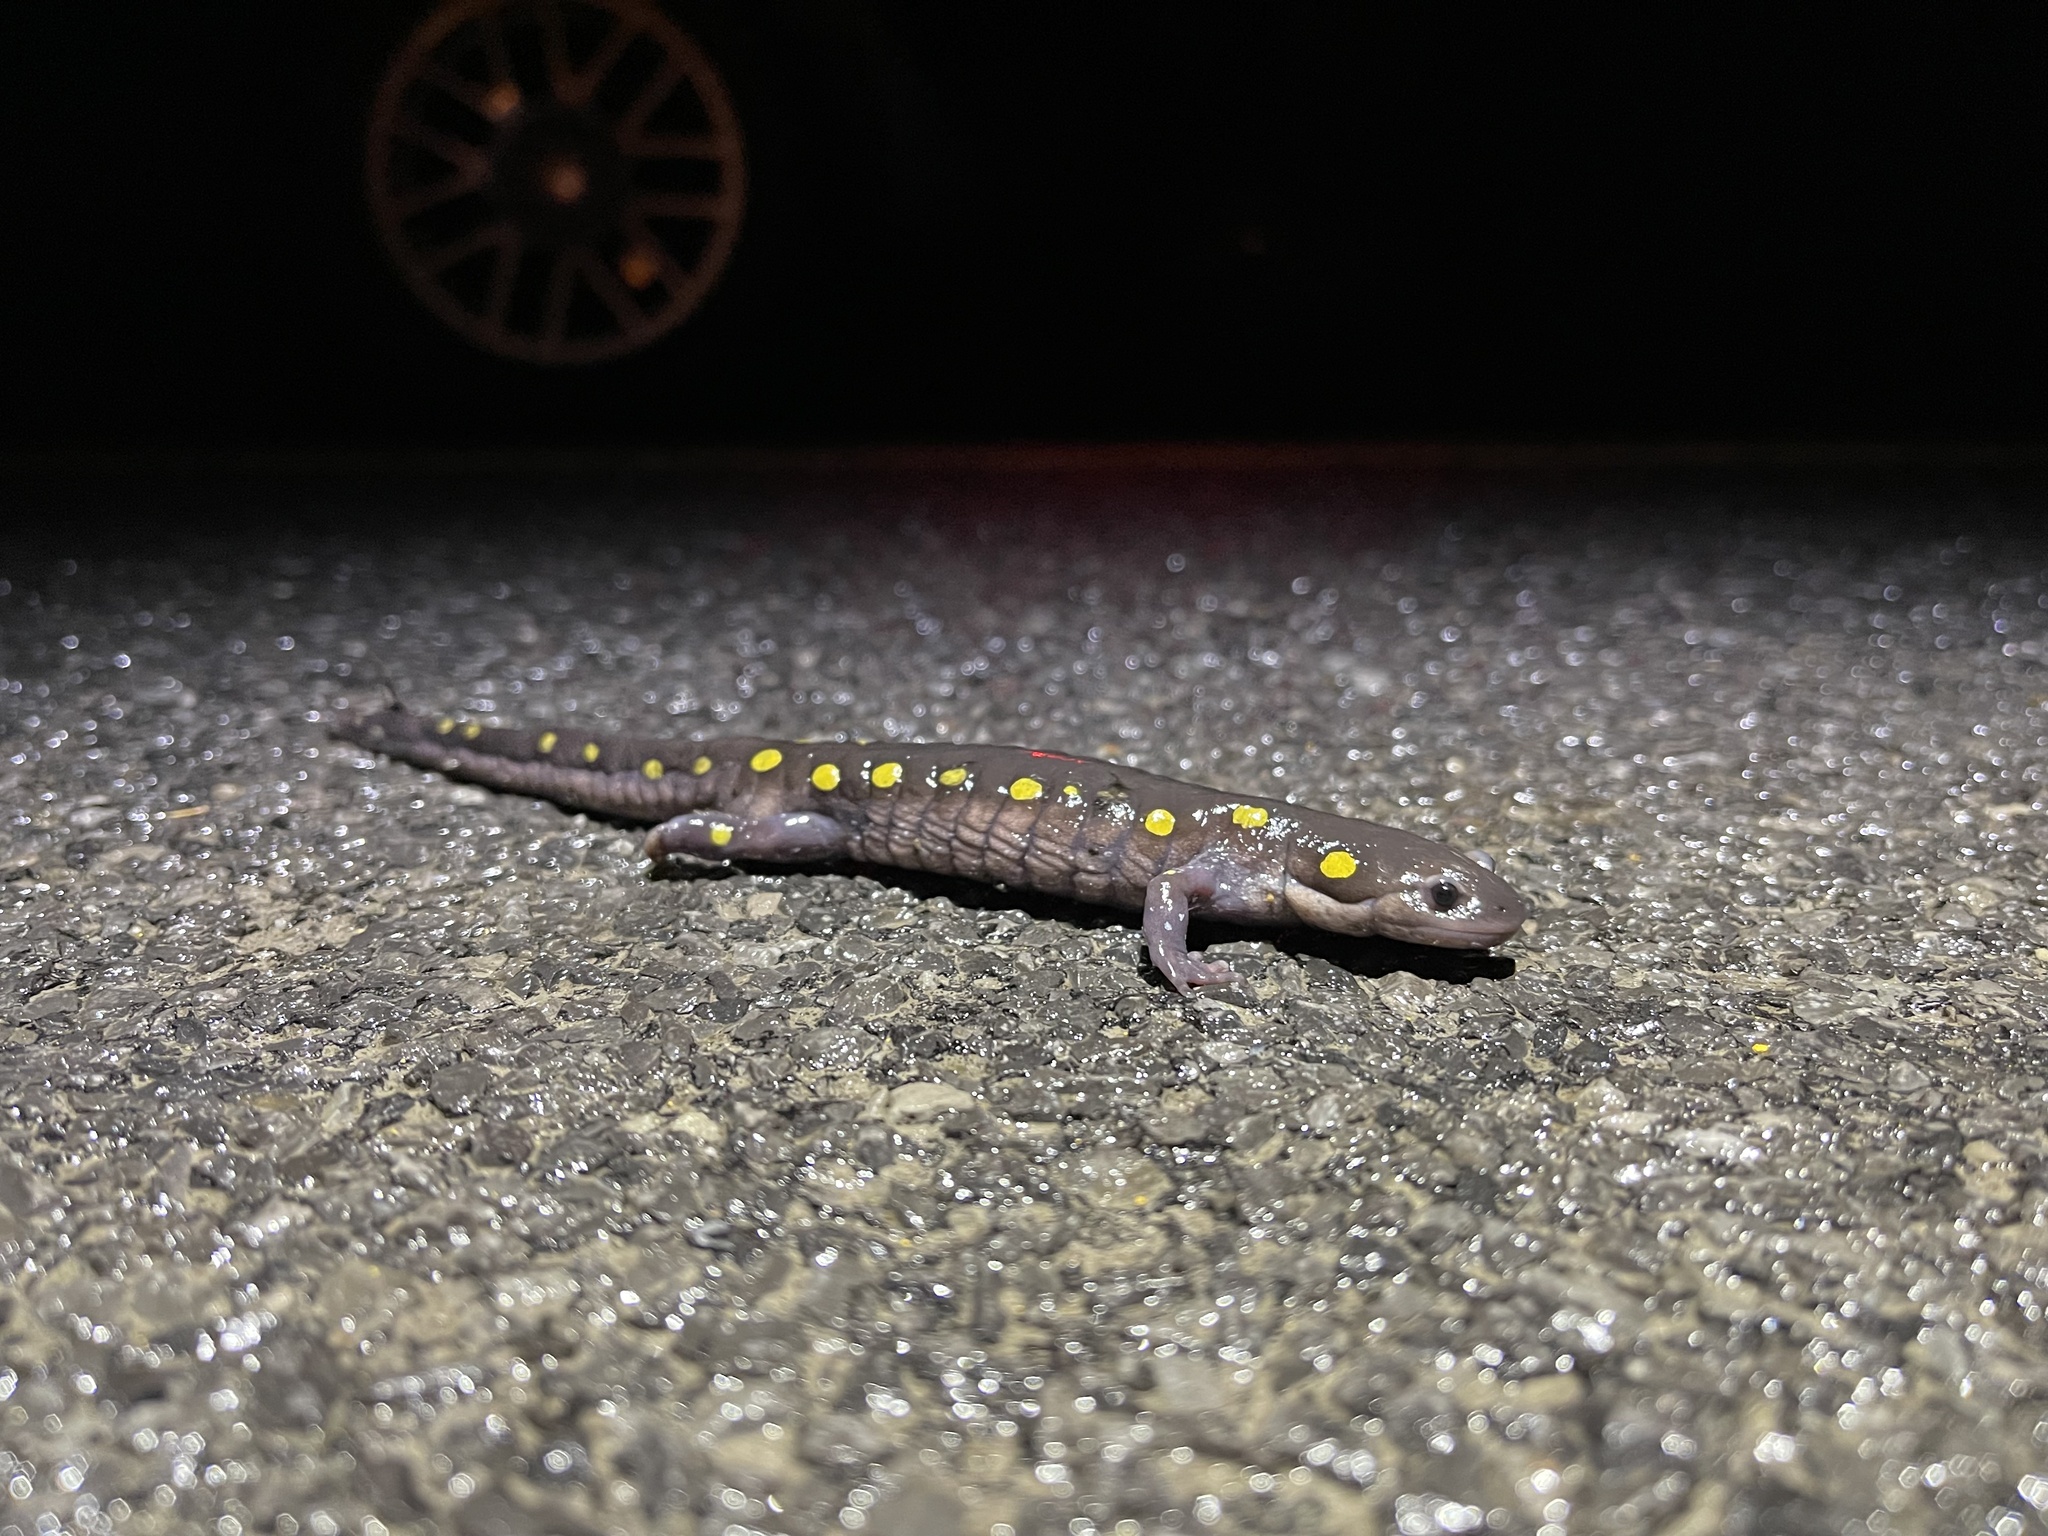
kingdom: Animalia
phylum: Chordata
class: Amphibia
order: Caudata
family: Ambystomatidae
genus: Ambystoma
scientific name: Ambystoma maculatum
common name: Spotted salamander
